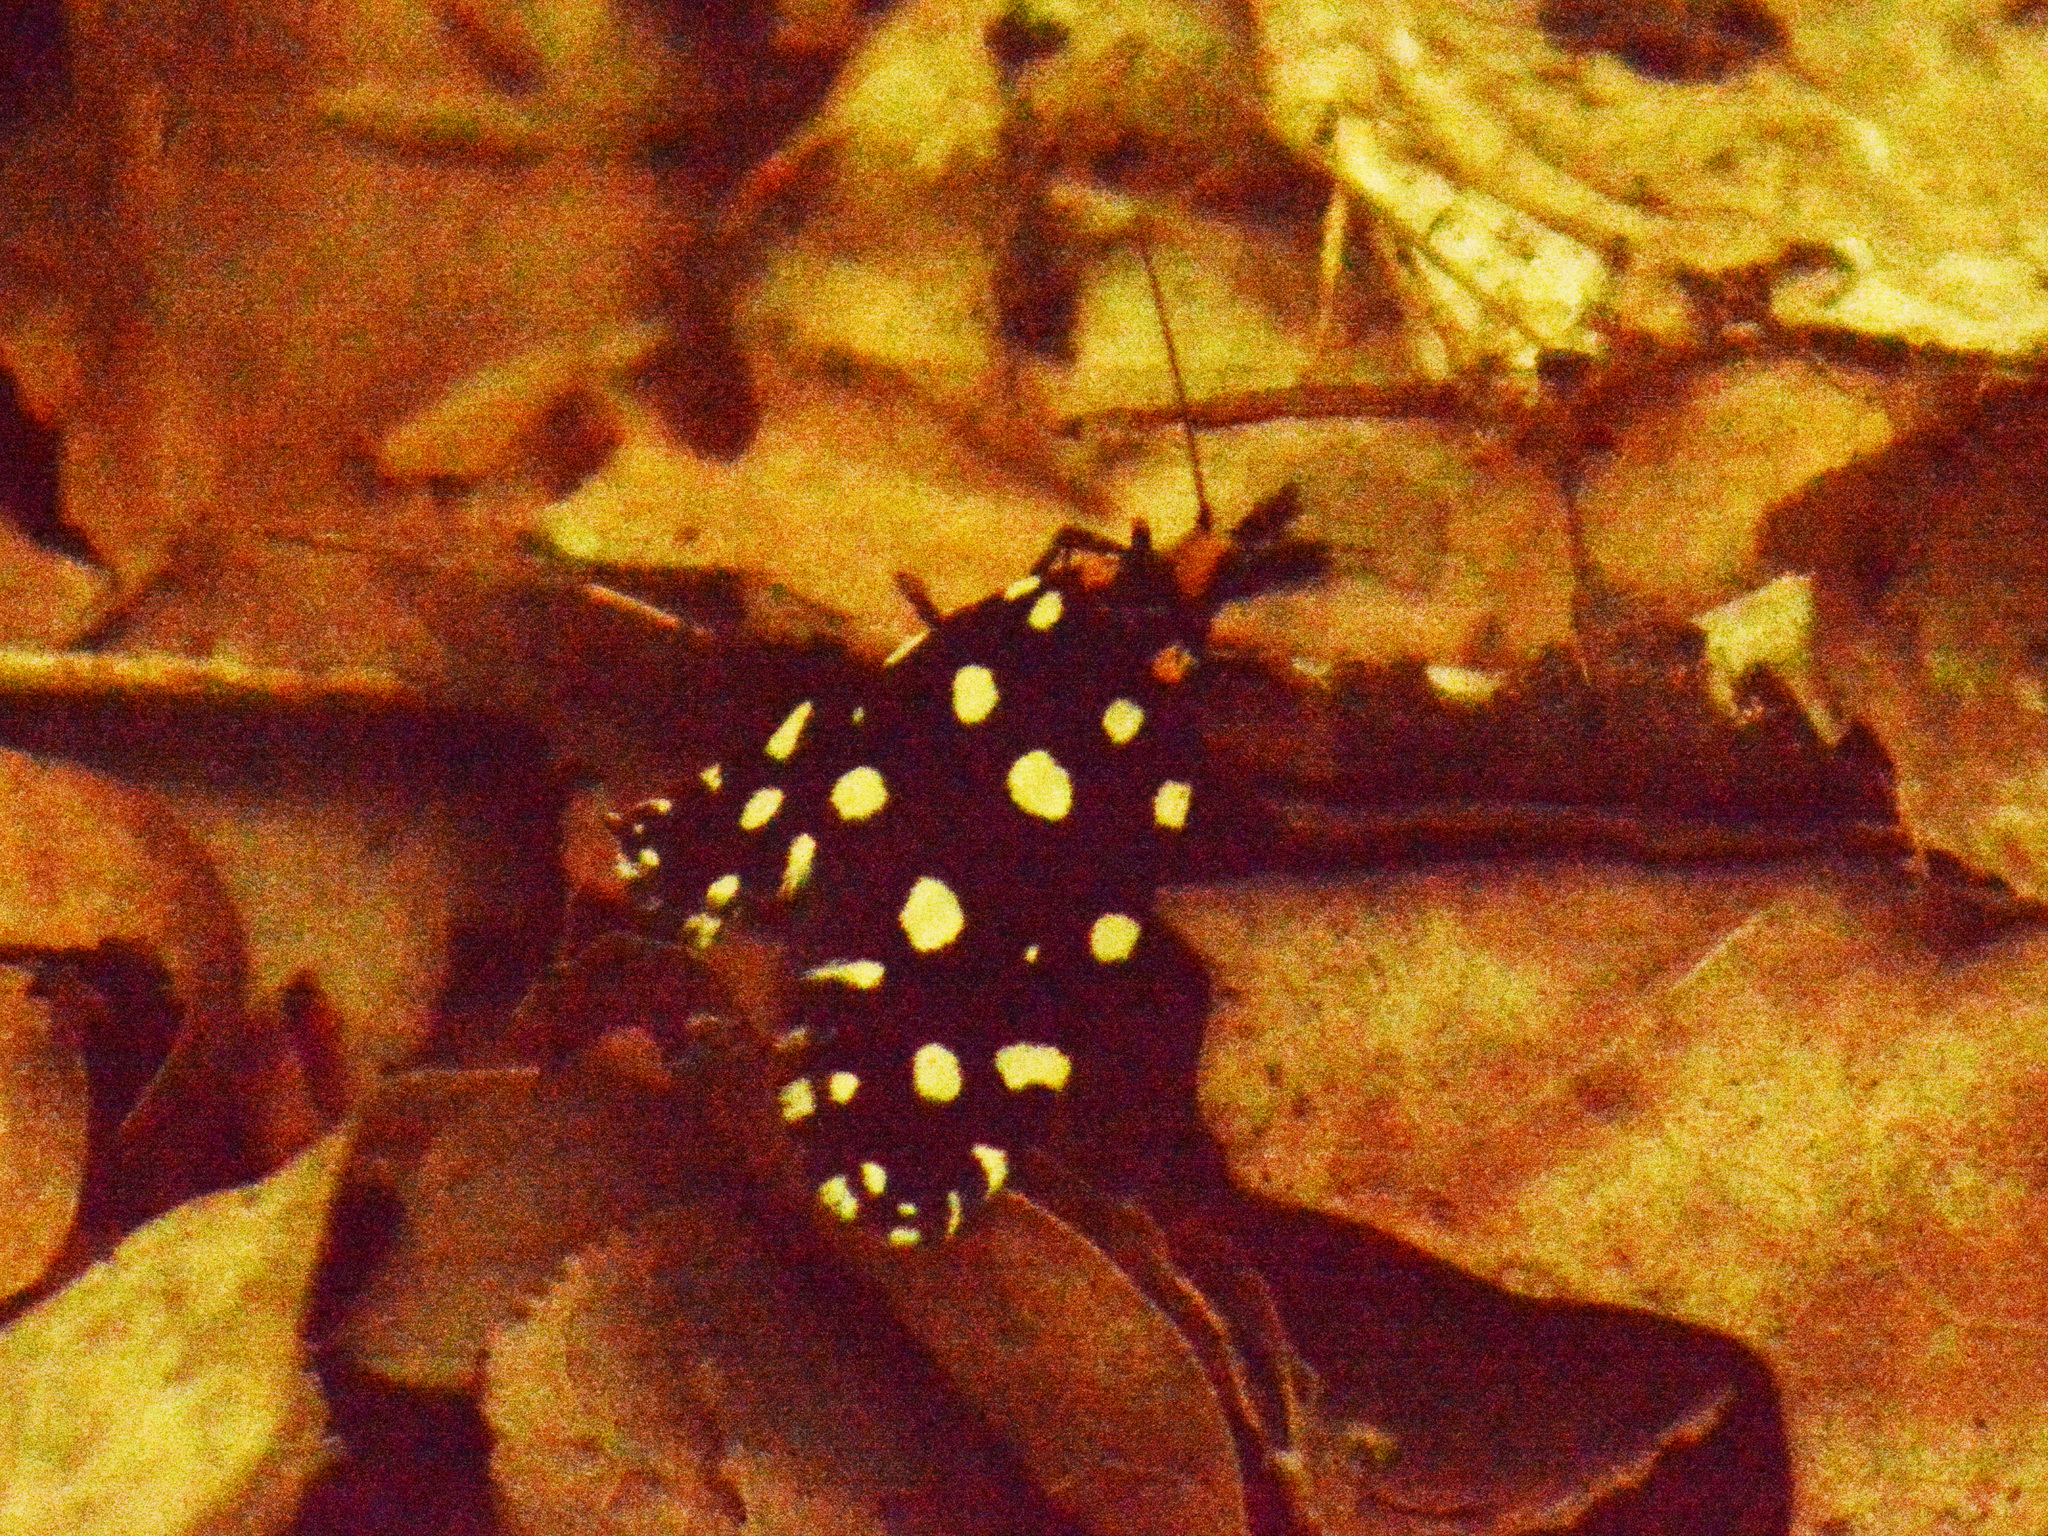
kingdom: Animalia
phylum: Arthropoda
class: Insecta
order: Lepidoptera
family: Tineidae
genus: Euplocamus
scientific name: Euplocamus anthracinalis
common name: Black clothes
